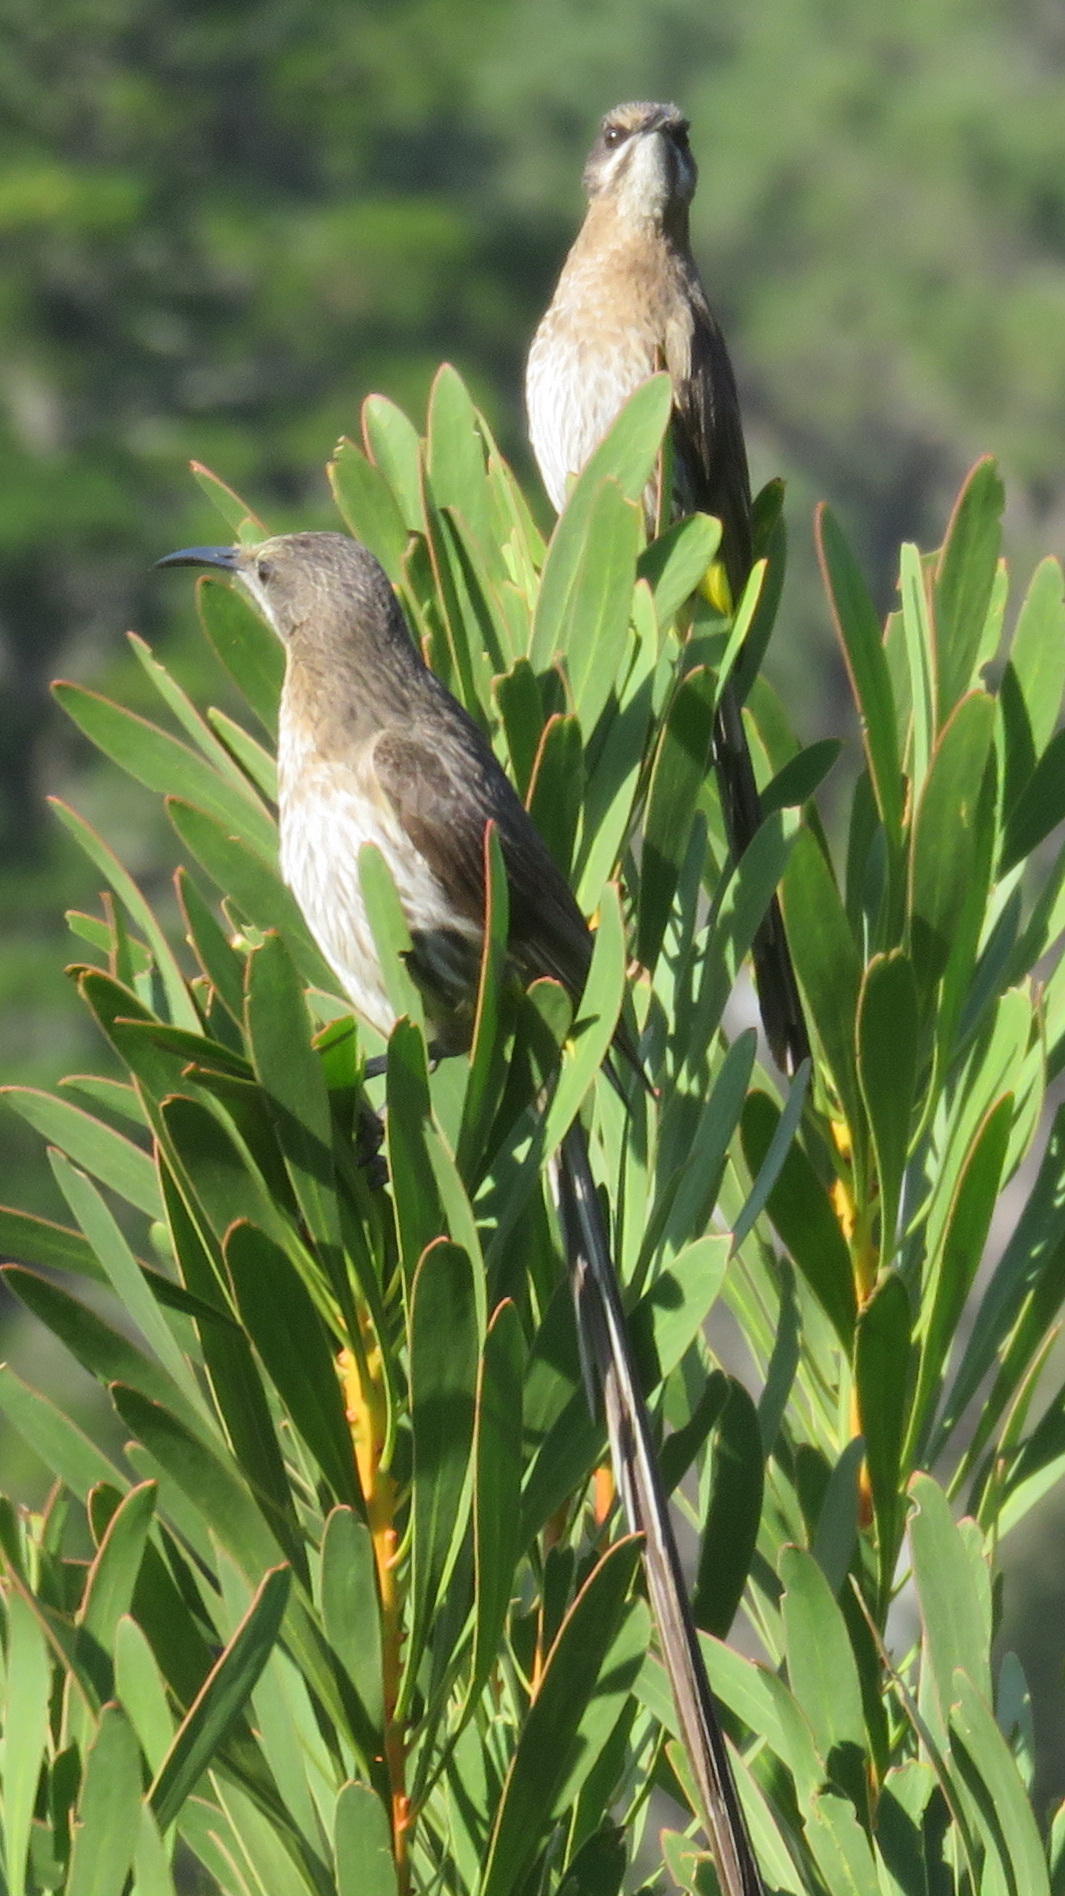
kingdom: Animalia
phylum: Chordata
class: Aves
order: Passeriformes
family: Promeropidae
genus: Promerops
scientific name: Promerops cafer
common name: Cape sugarbird
